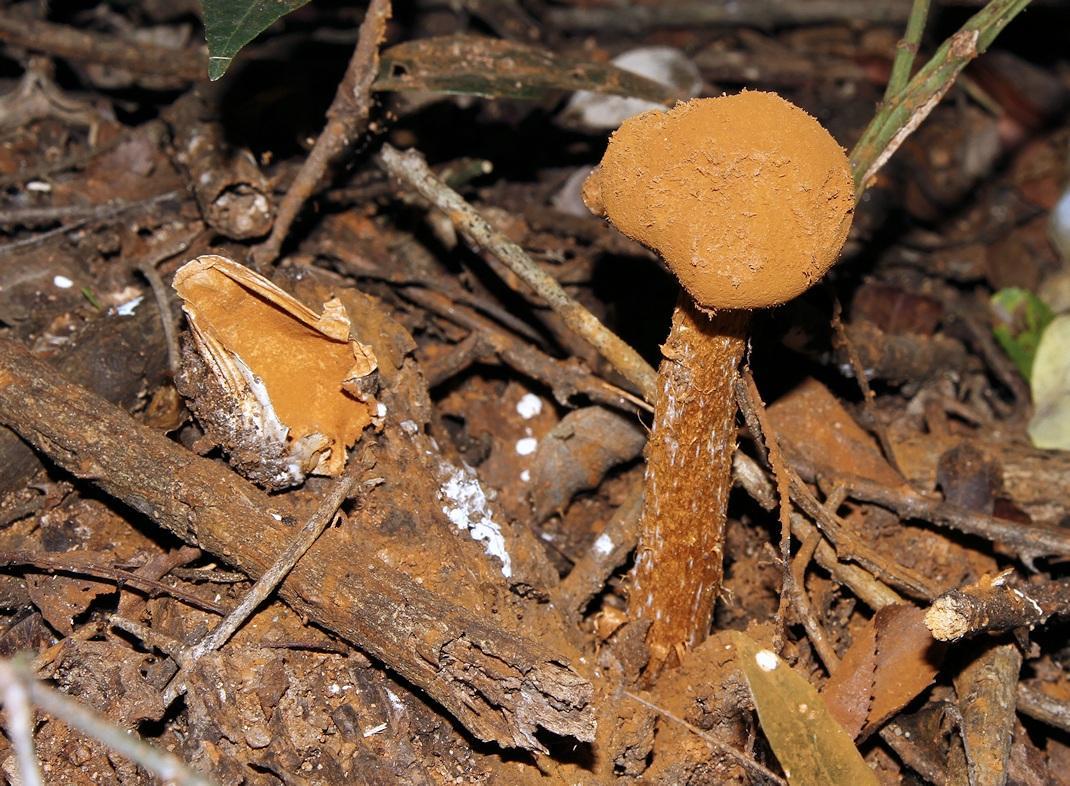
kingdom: Fungi
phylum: Basidiomycota
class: Agaricomycetes
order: Agaricales
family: Agaricaceae
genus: Battarrea
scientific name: Battarrea phalloides
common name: Sandy stiltball
